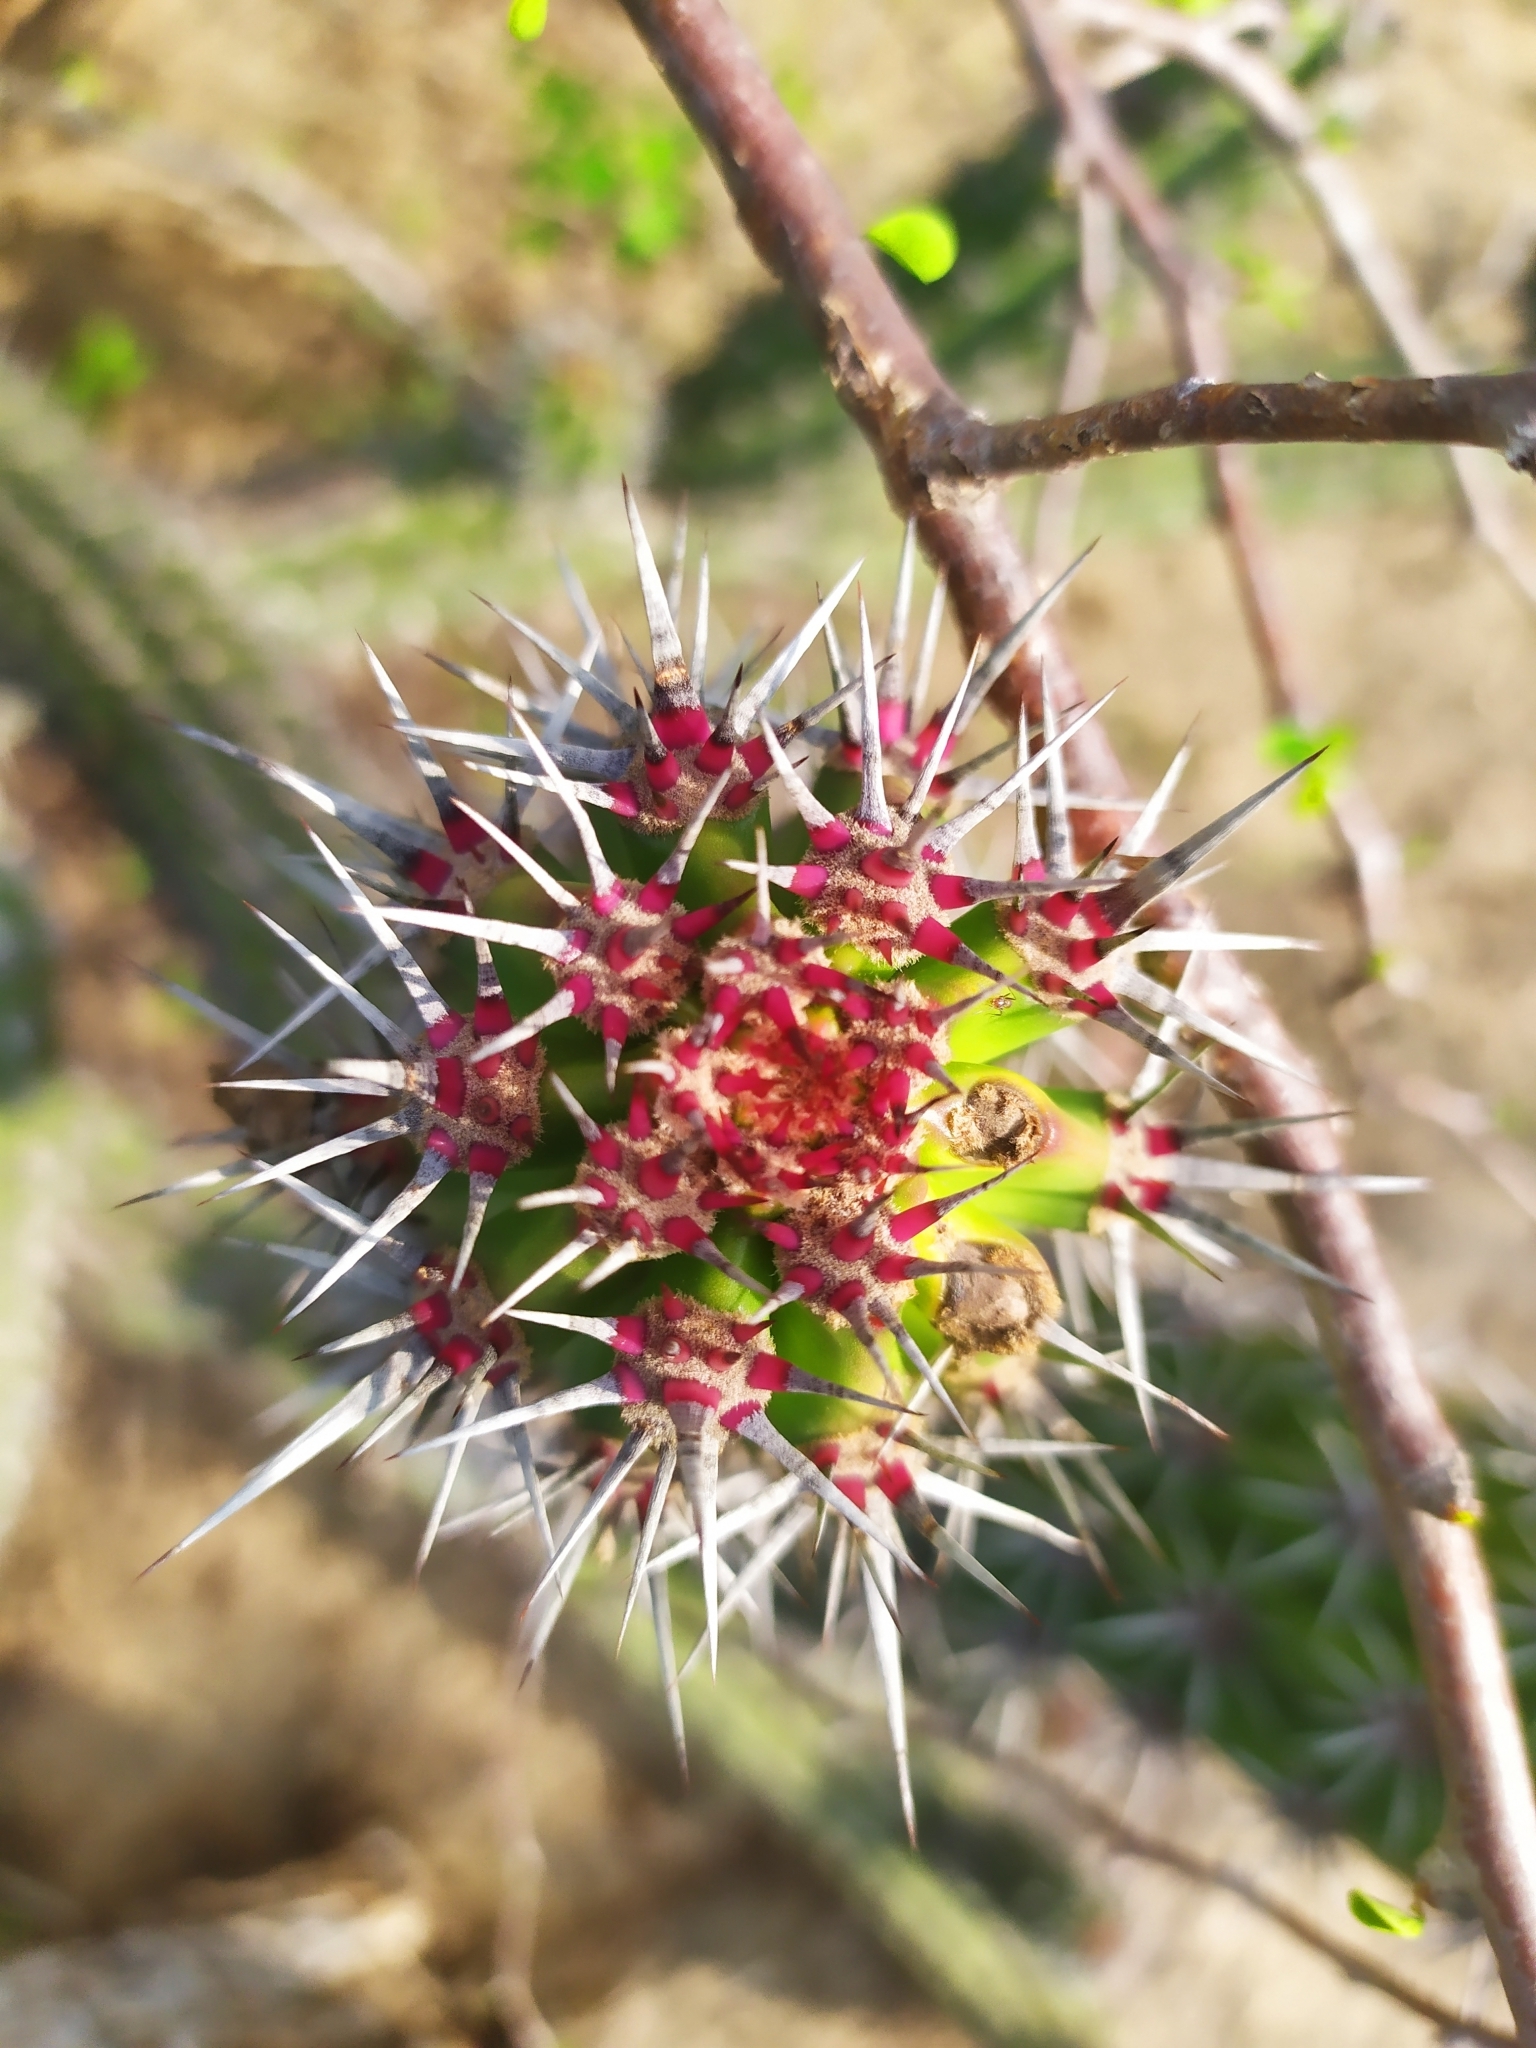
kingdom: Plantae
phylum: Tracheophyta
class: Magnoliopsida
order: Caryophyllales
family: Cactaceae
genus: Stenocereus
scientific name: Stenocereus gummosus
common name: Dagger cactus
